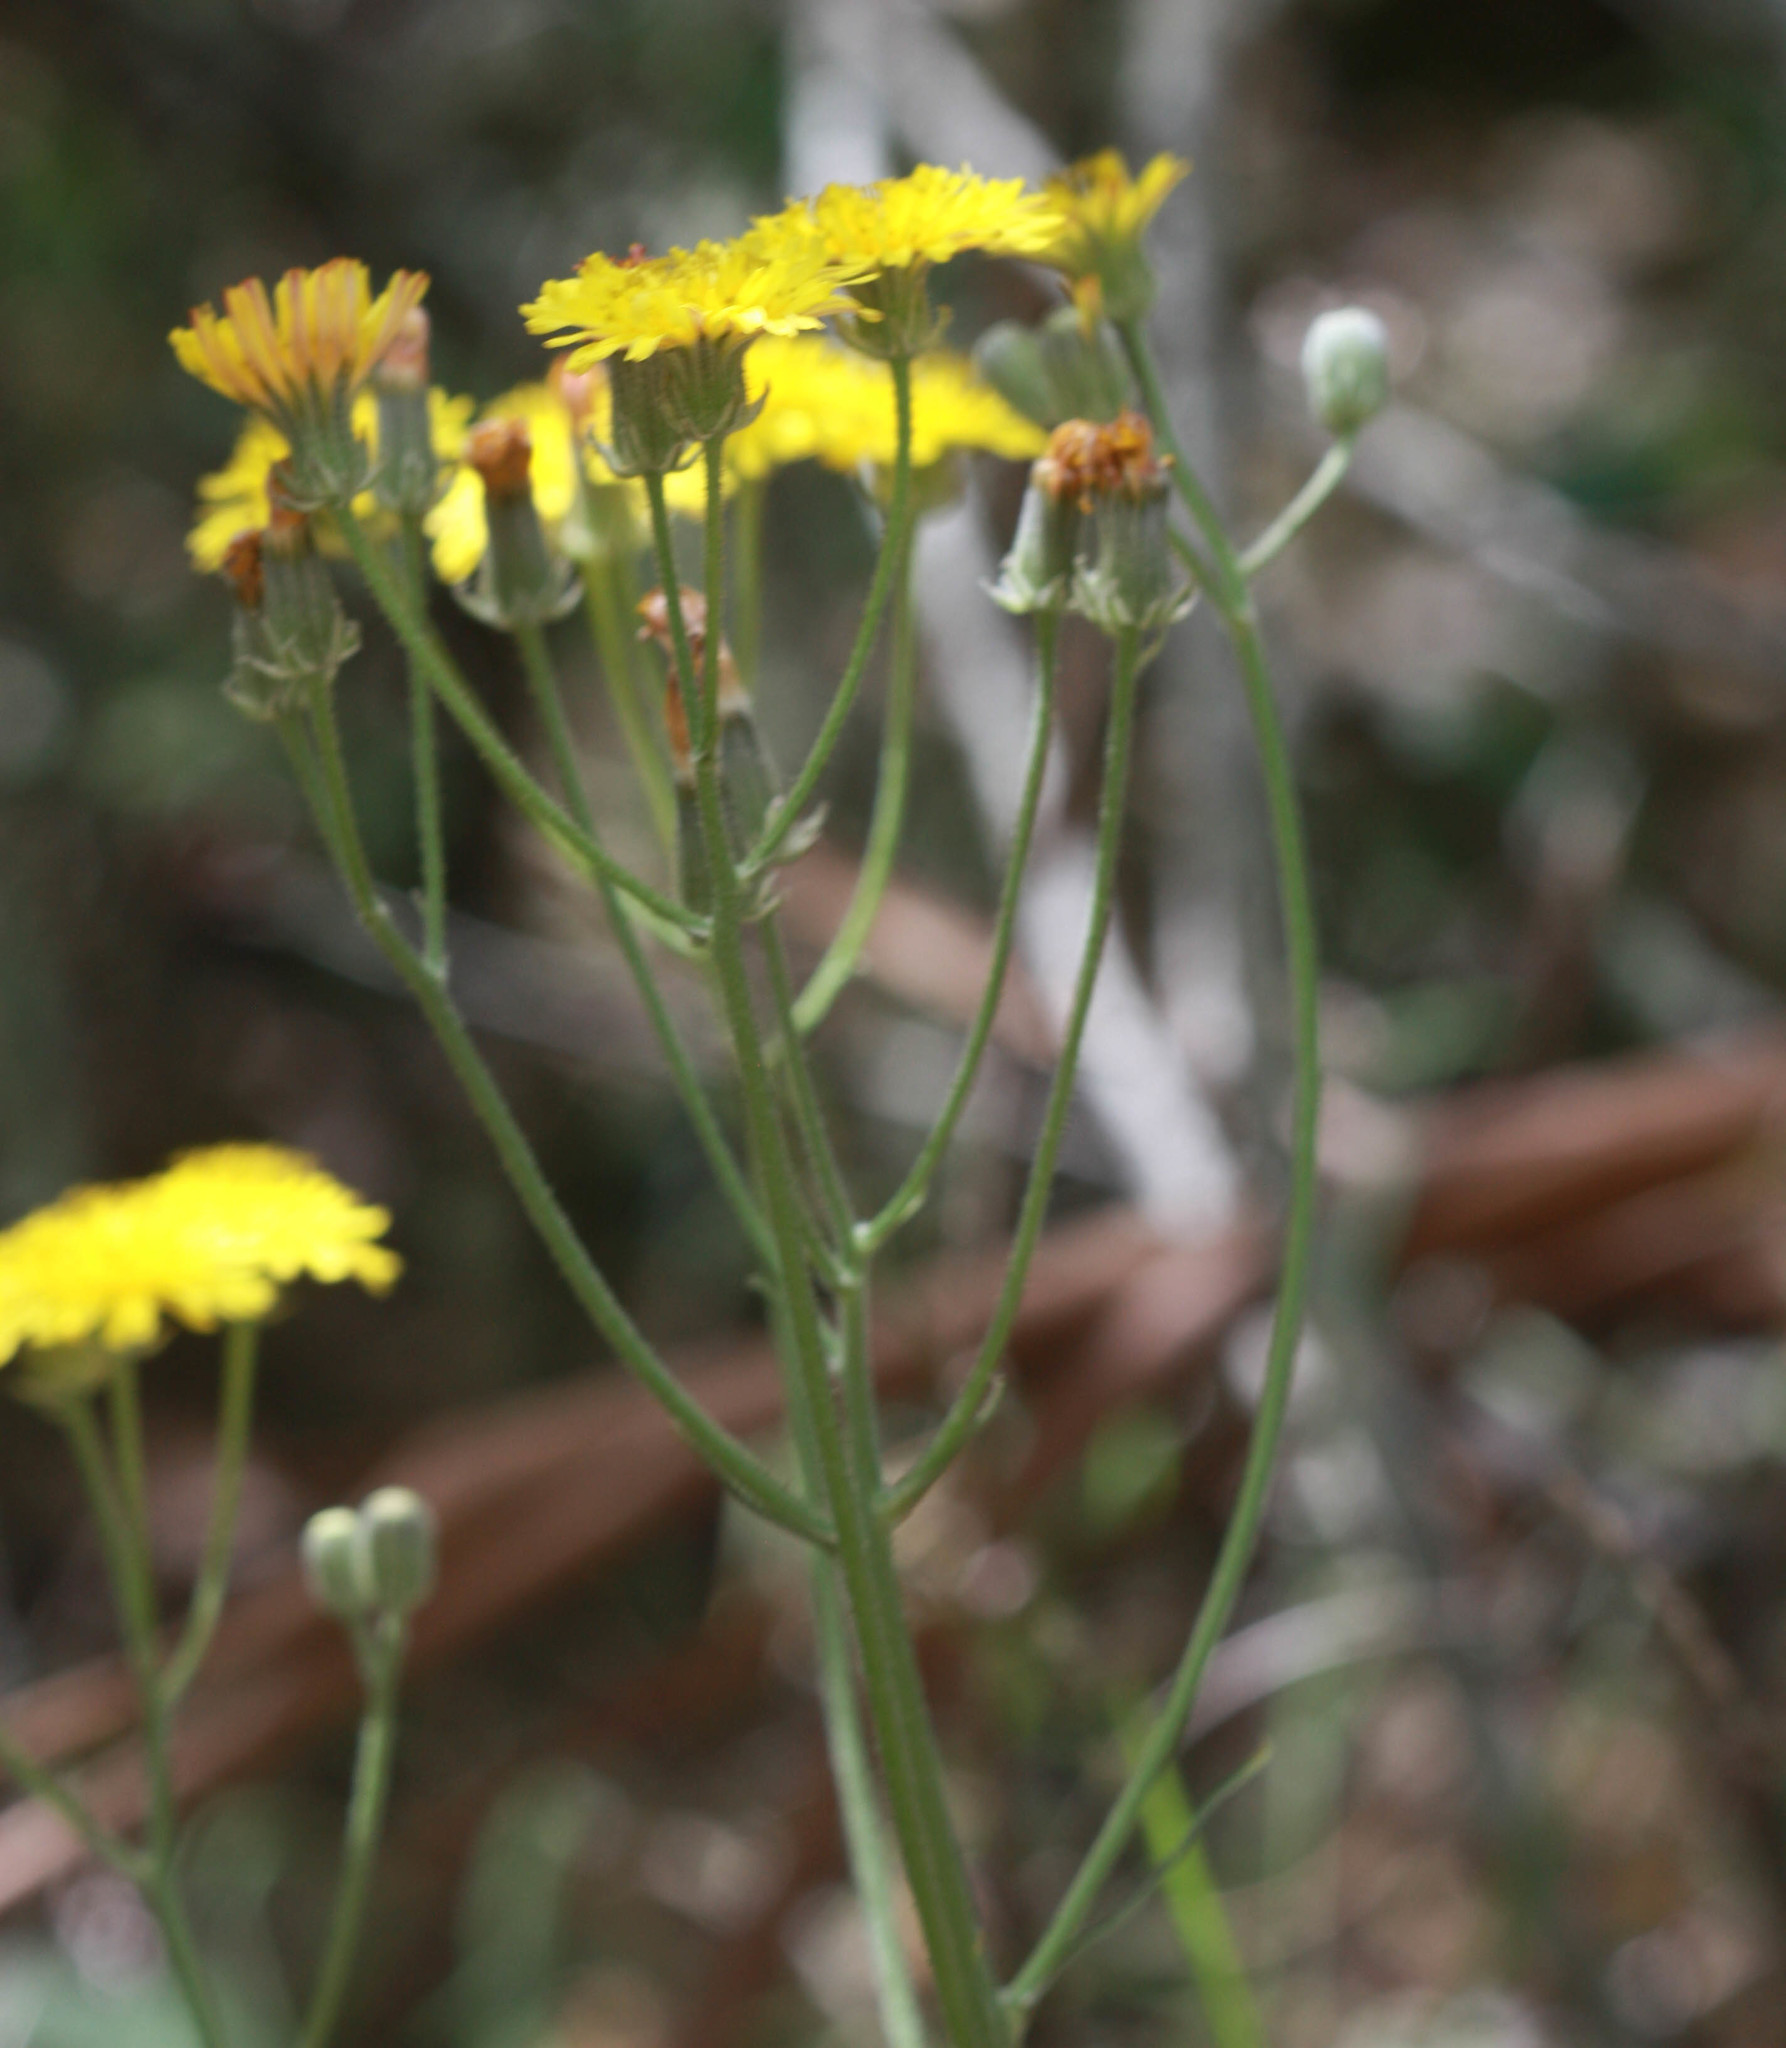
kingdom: Plantae
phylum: Tracheophyta
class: Magnoliopsida
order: Asterales
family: Asteraceae
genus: Crepis
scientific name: Crepis vesicaria
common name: Beaked hawksbeard
